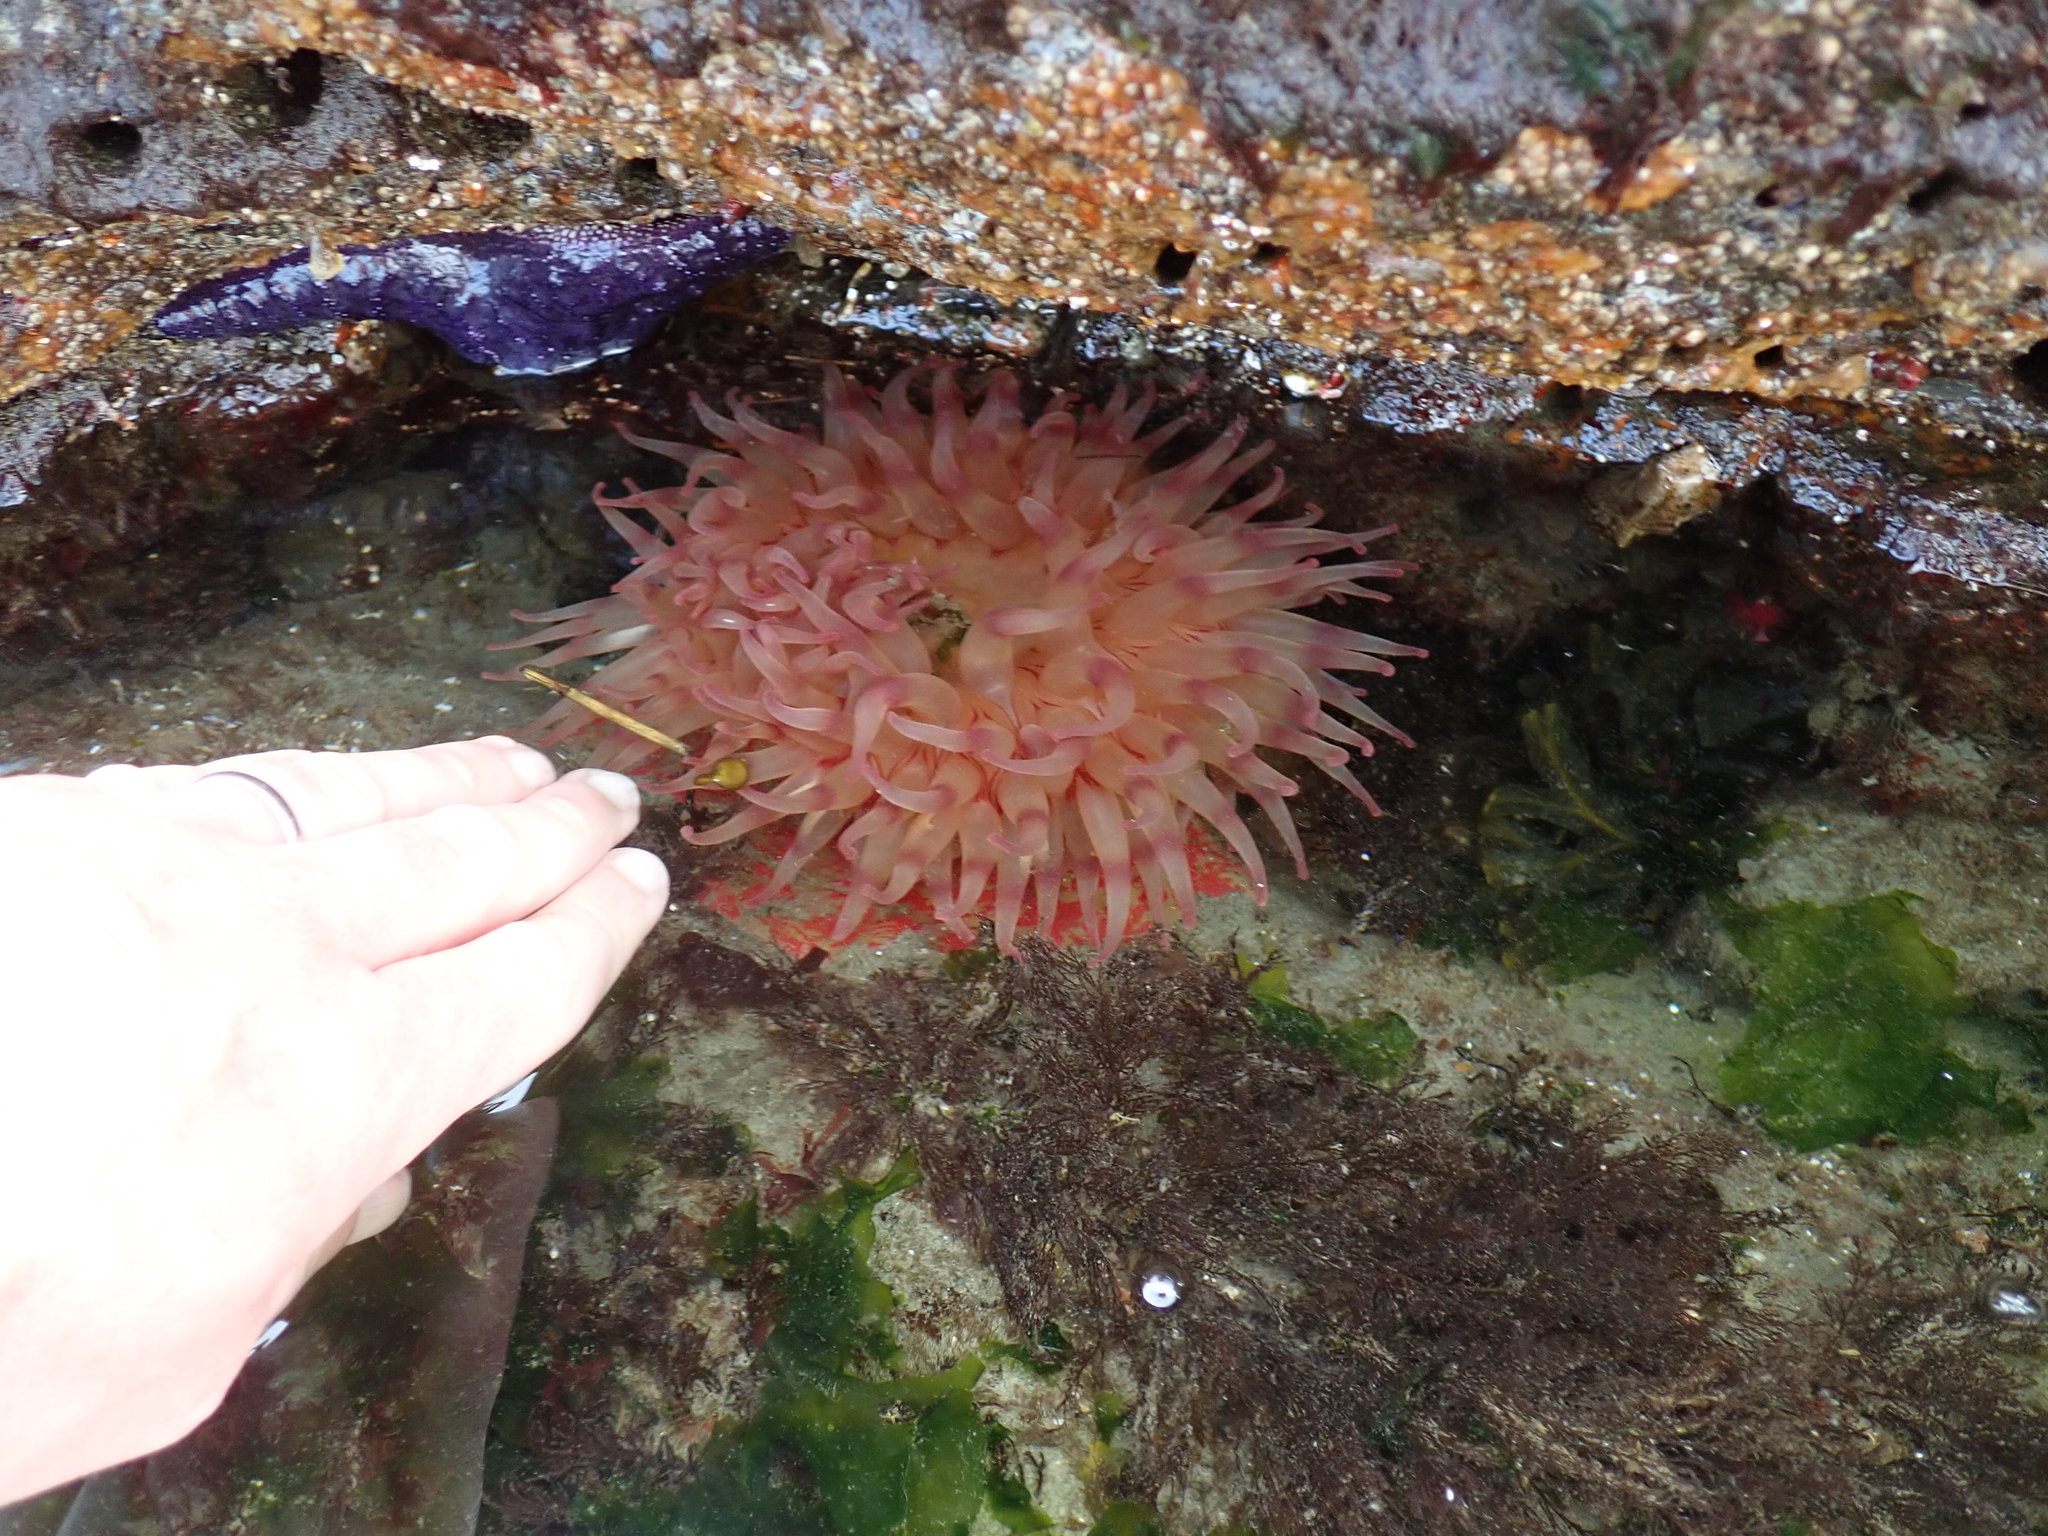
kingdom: Animalia
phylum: Cnidaria
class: Anthozoa
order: Actiniaria
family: Actiniidae
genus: Urticina
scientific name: Urticina grebelnyi
